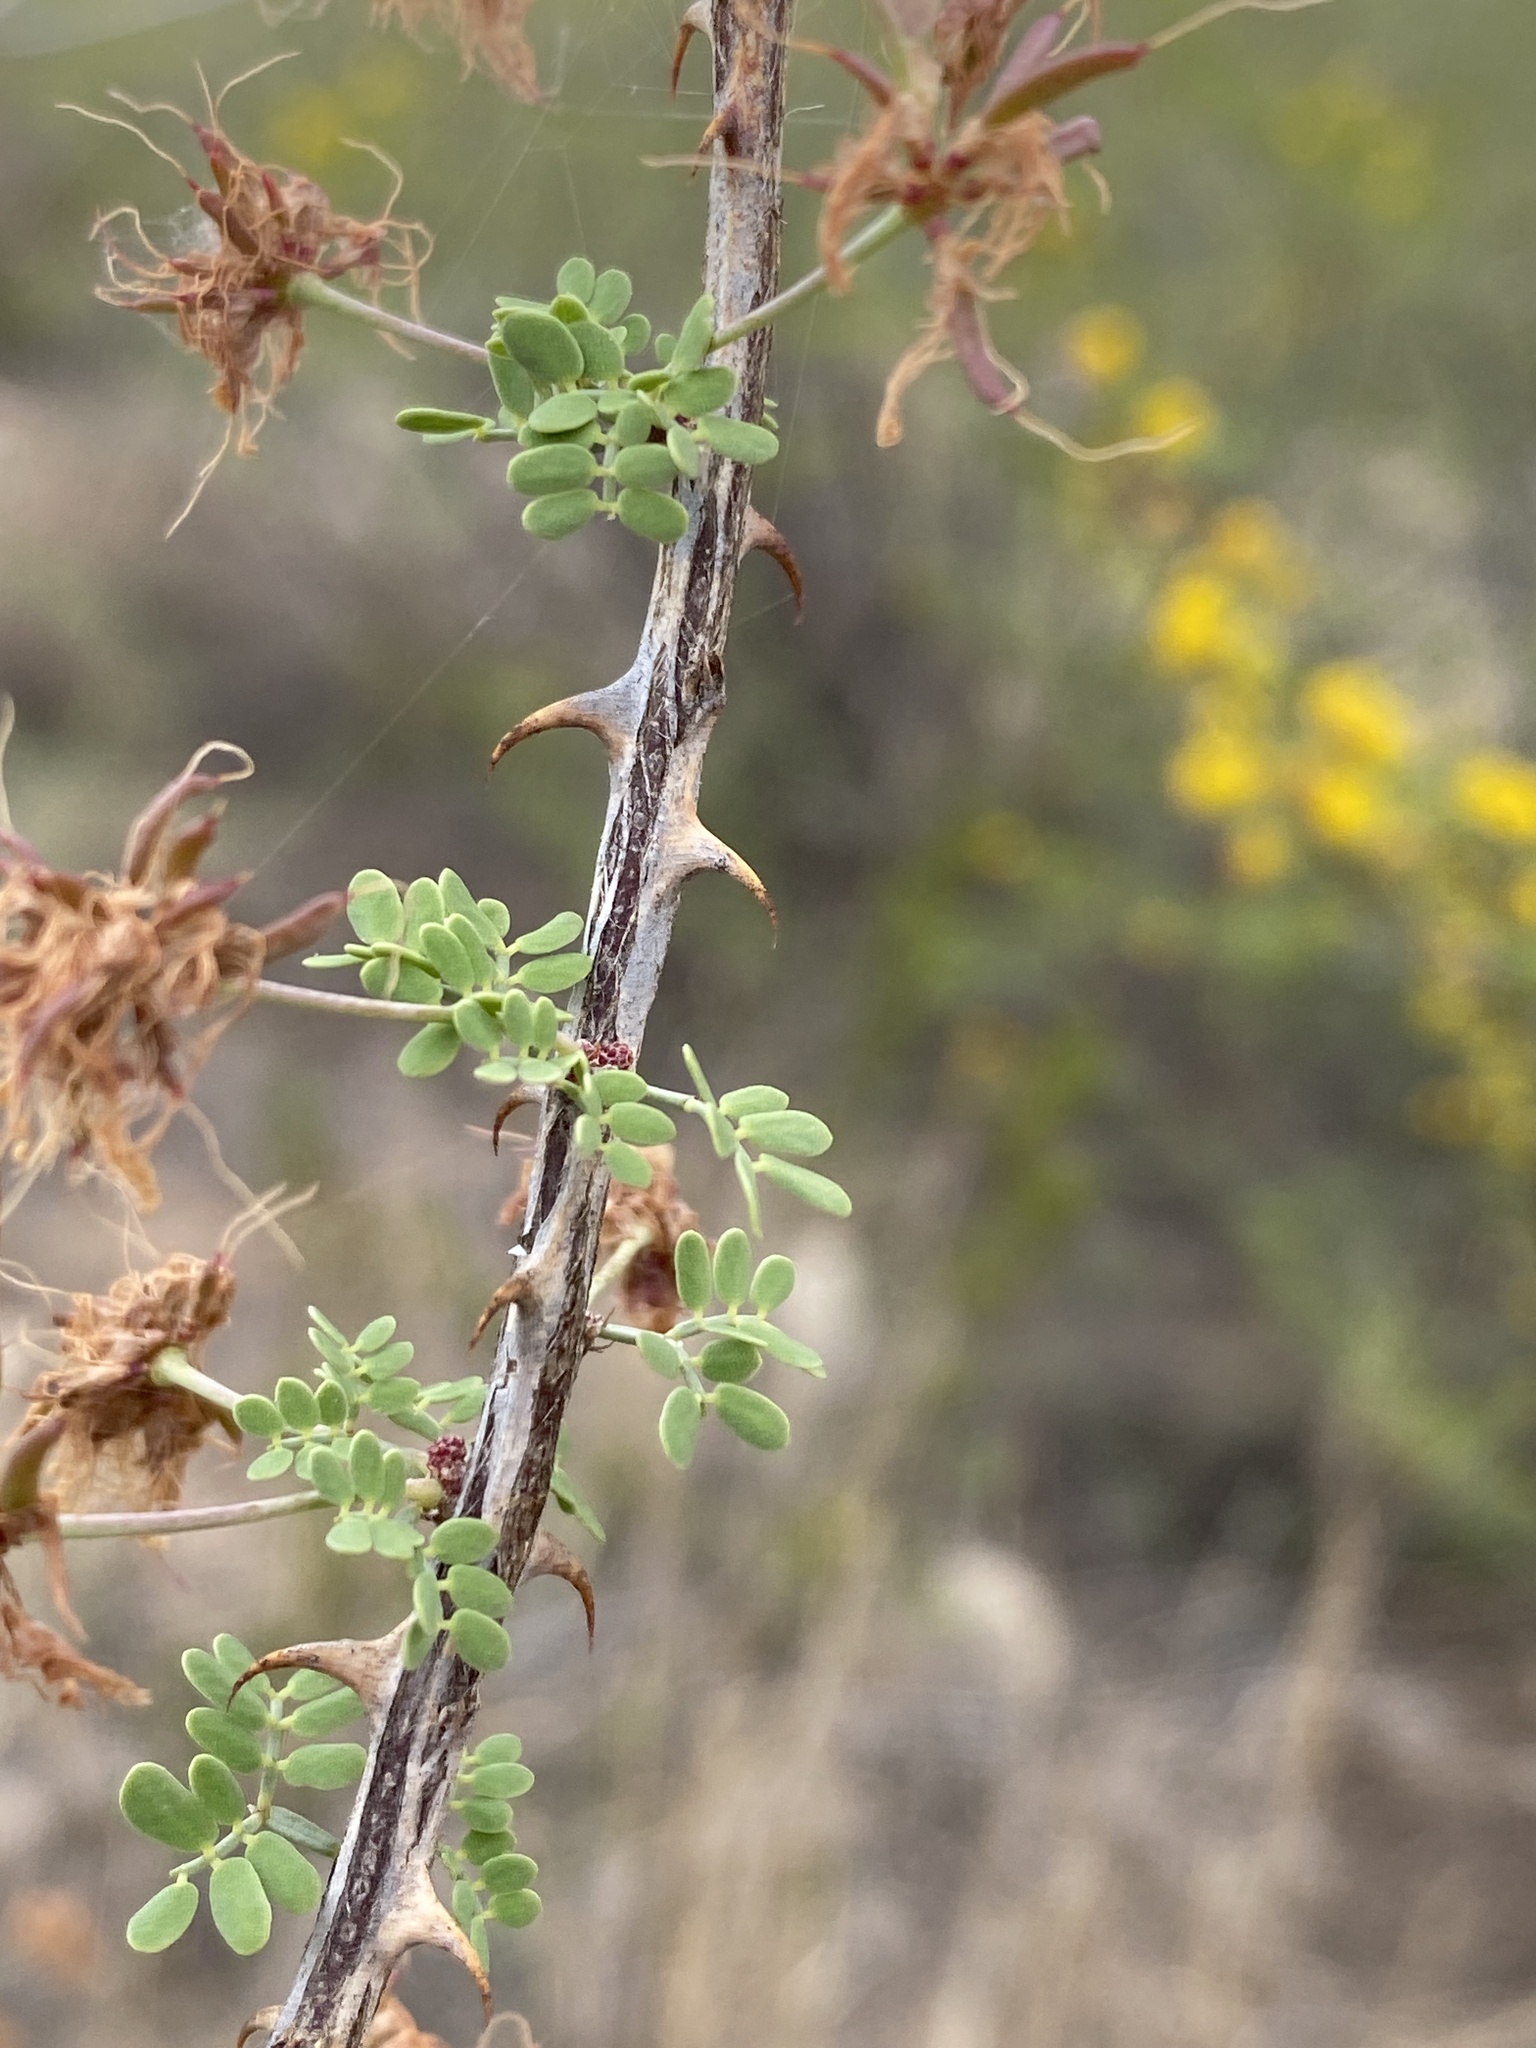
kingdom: Plantae
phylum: Tracheophyta
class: Magnoliopsida
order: Fabales
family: Fabaceae
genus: Mimosa
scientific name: Mimosa borealis
